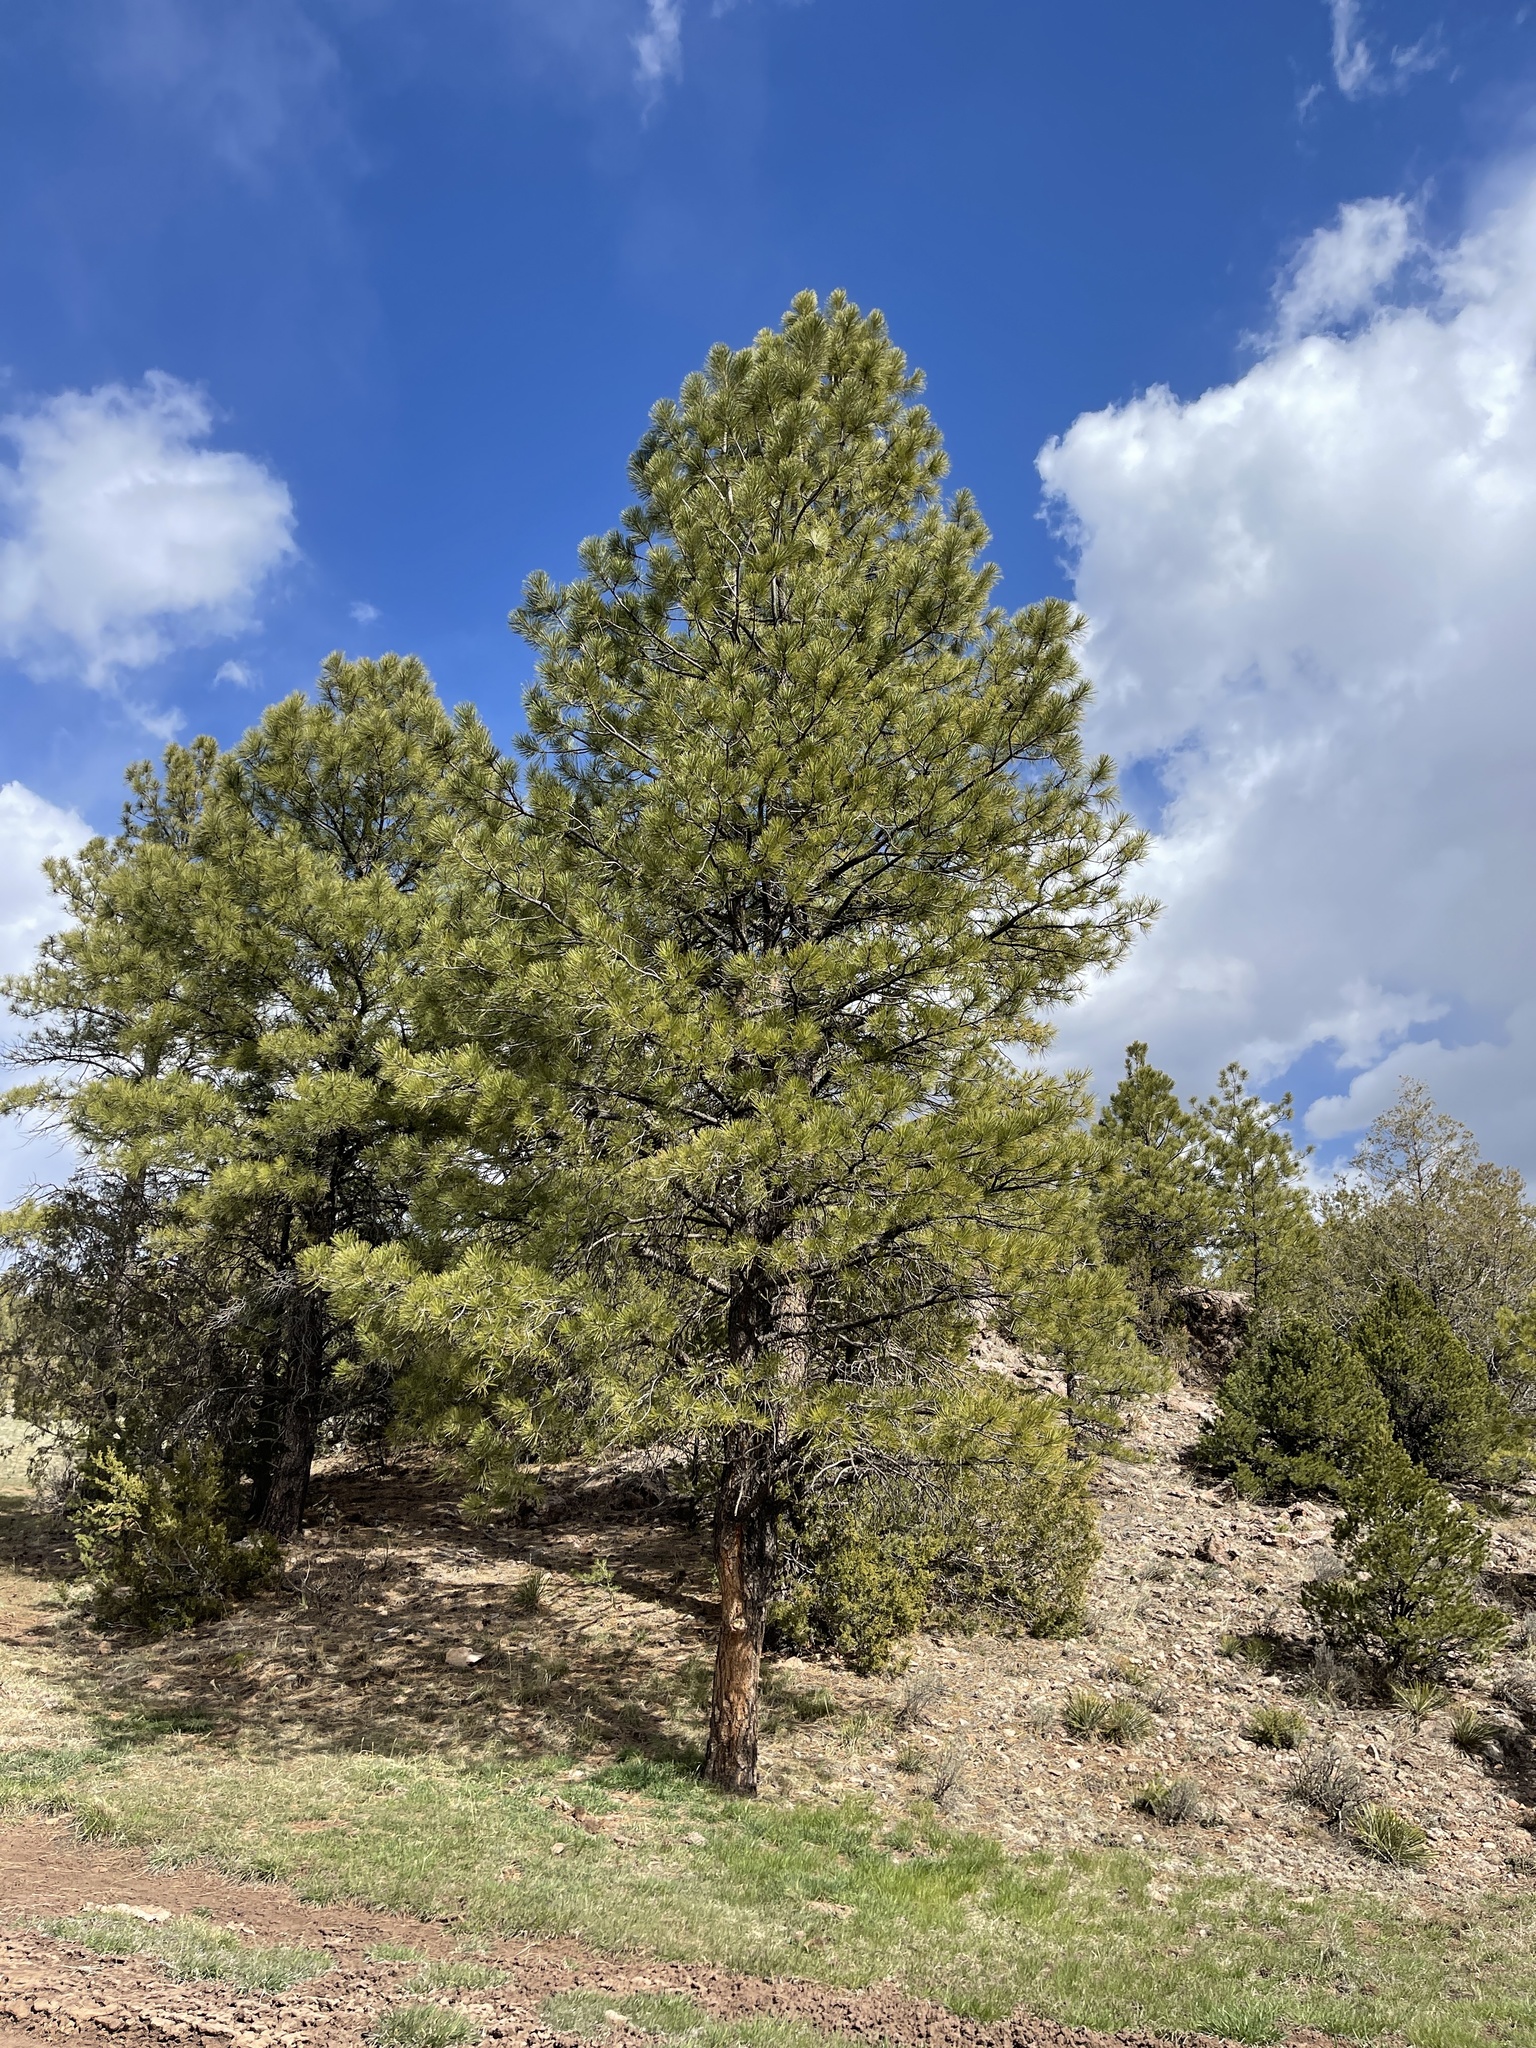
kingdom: Plantae
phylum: Tracheophyta
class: Pinopsida
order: Pinales
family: Pinaceae
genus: Pinus
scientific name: Pinus ponderosa
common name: Western yellow-pine
